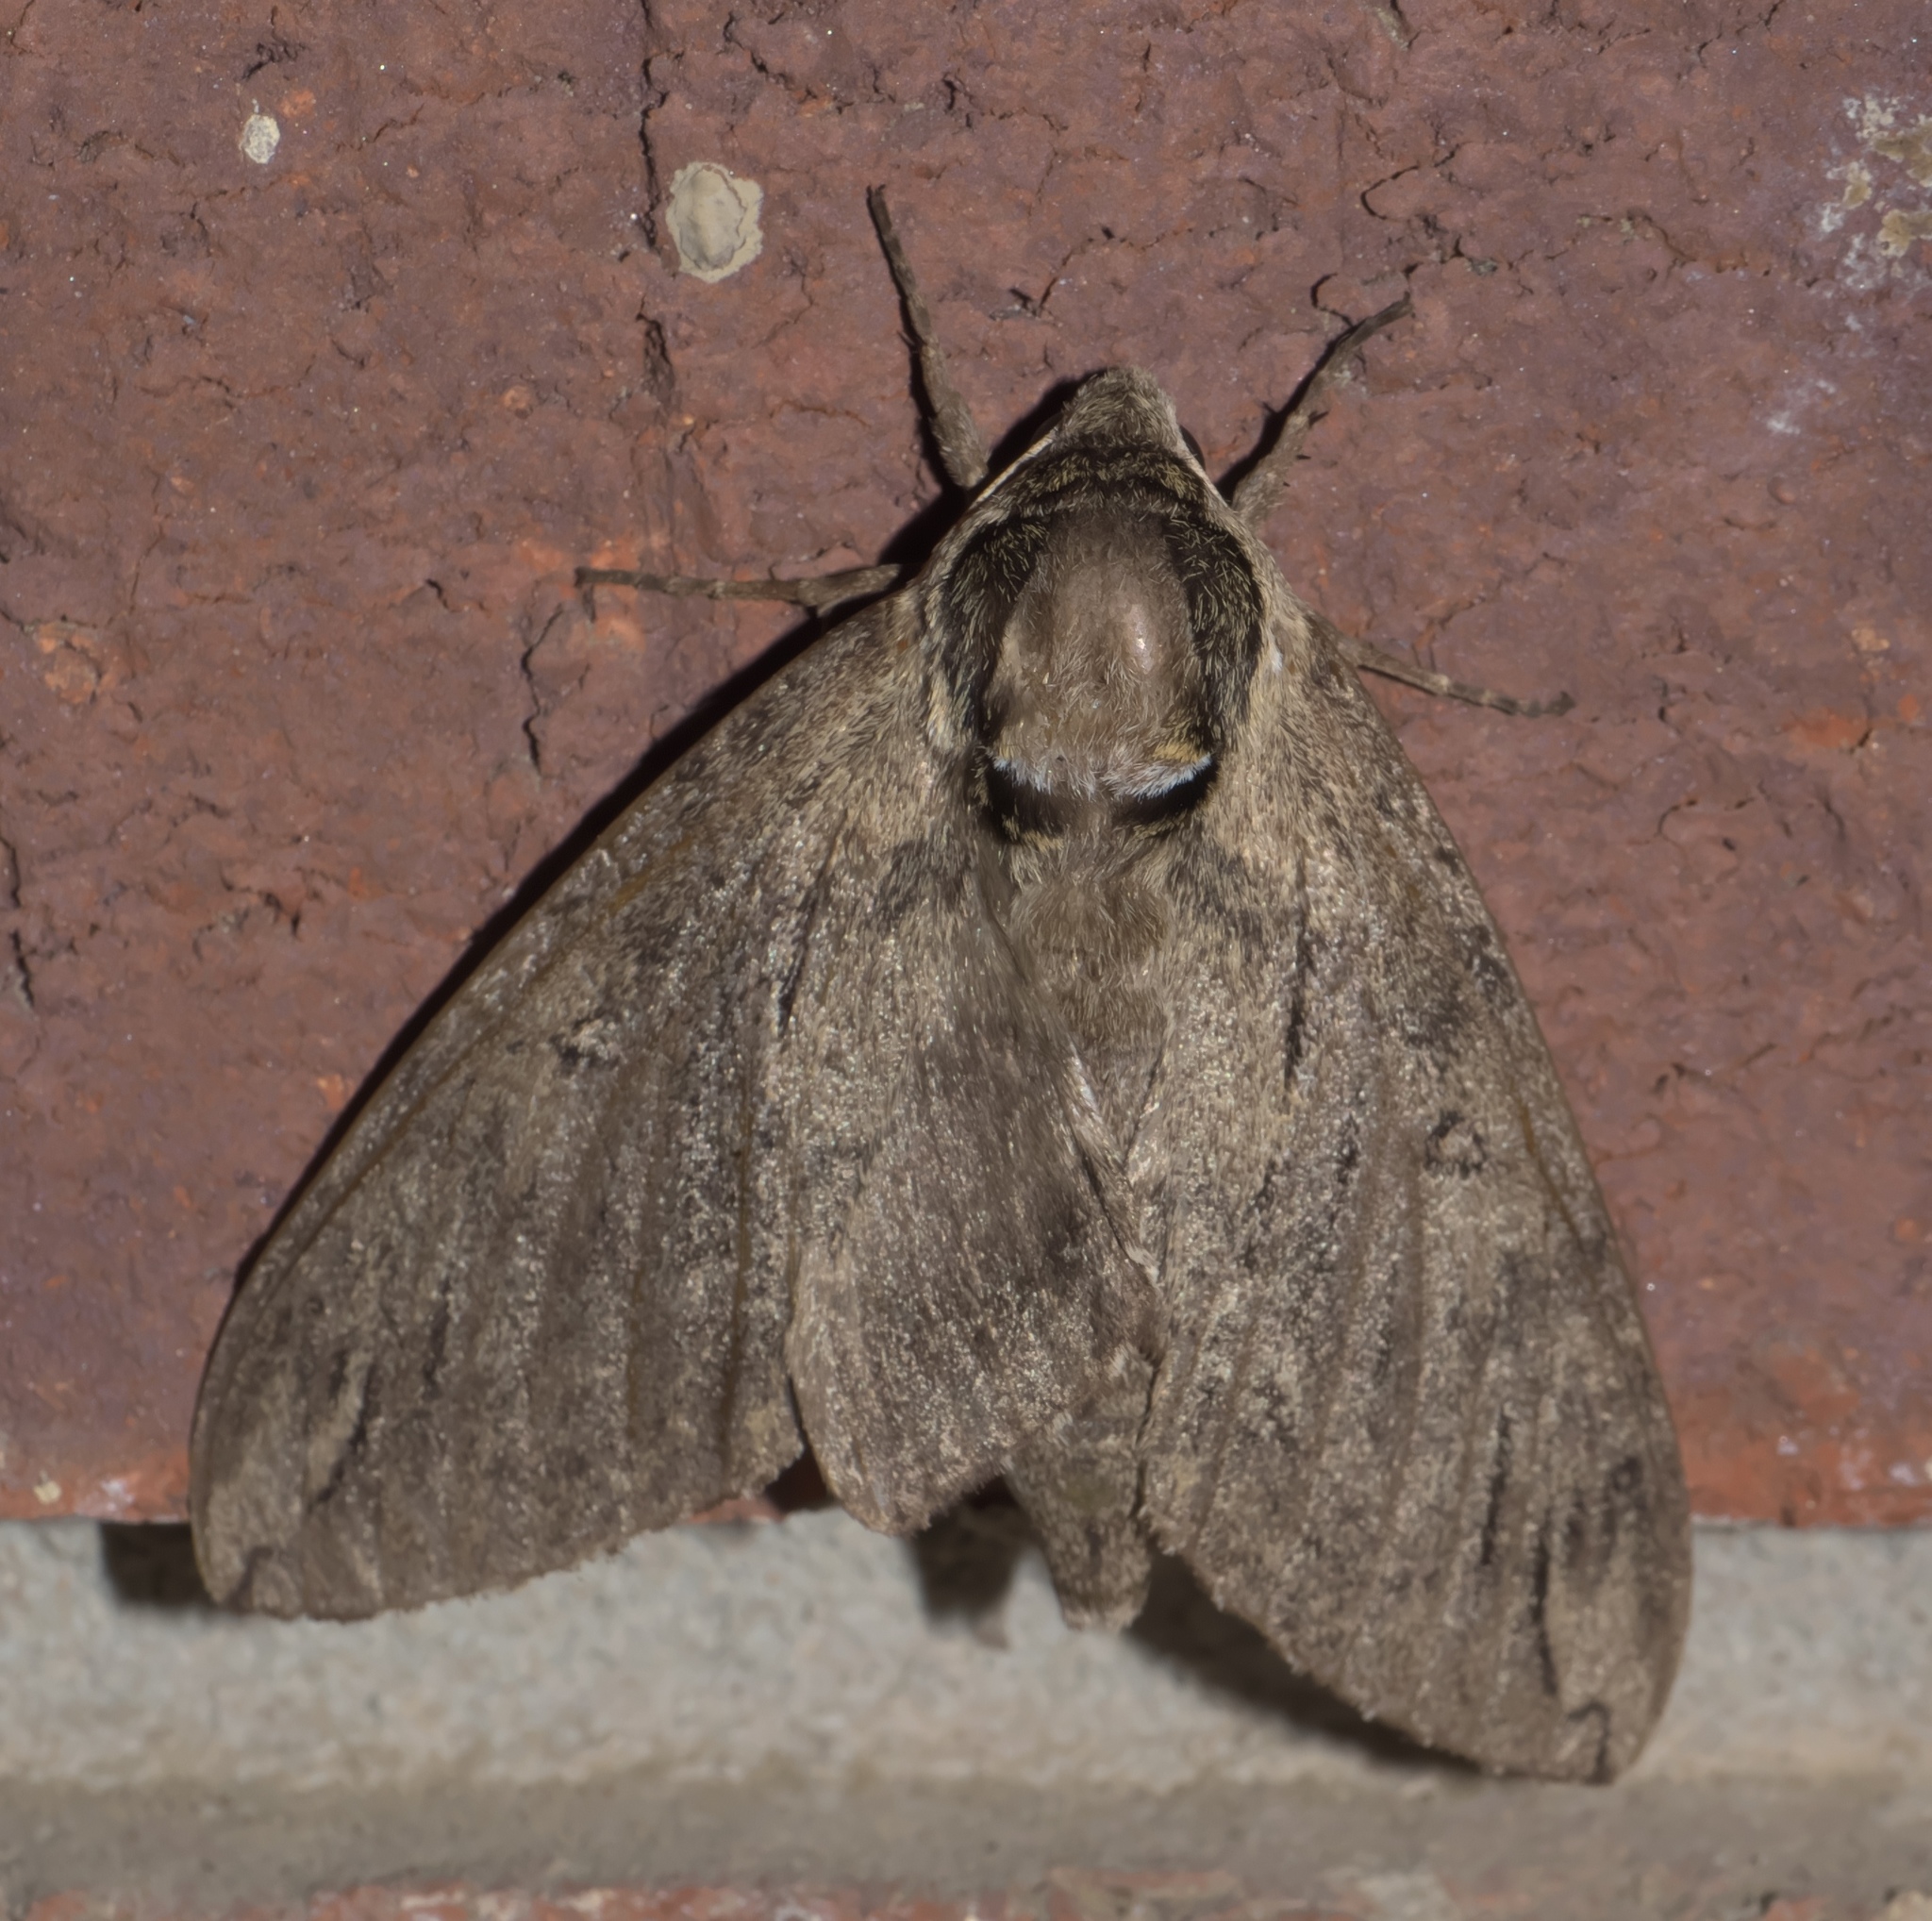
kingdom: Animalia
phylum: Arthropoda
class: Insecta
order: Lepidoptera
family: Sphingidae
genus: Ceratomia
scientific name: Ceratomia catalpae
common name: Catalpa hornworm
